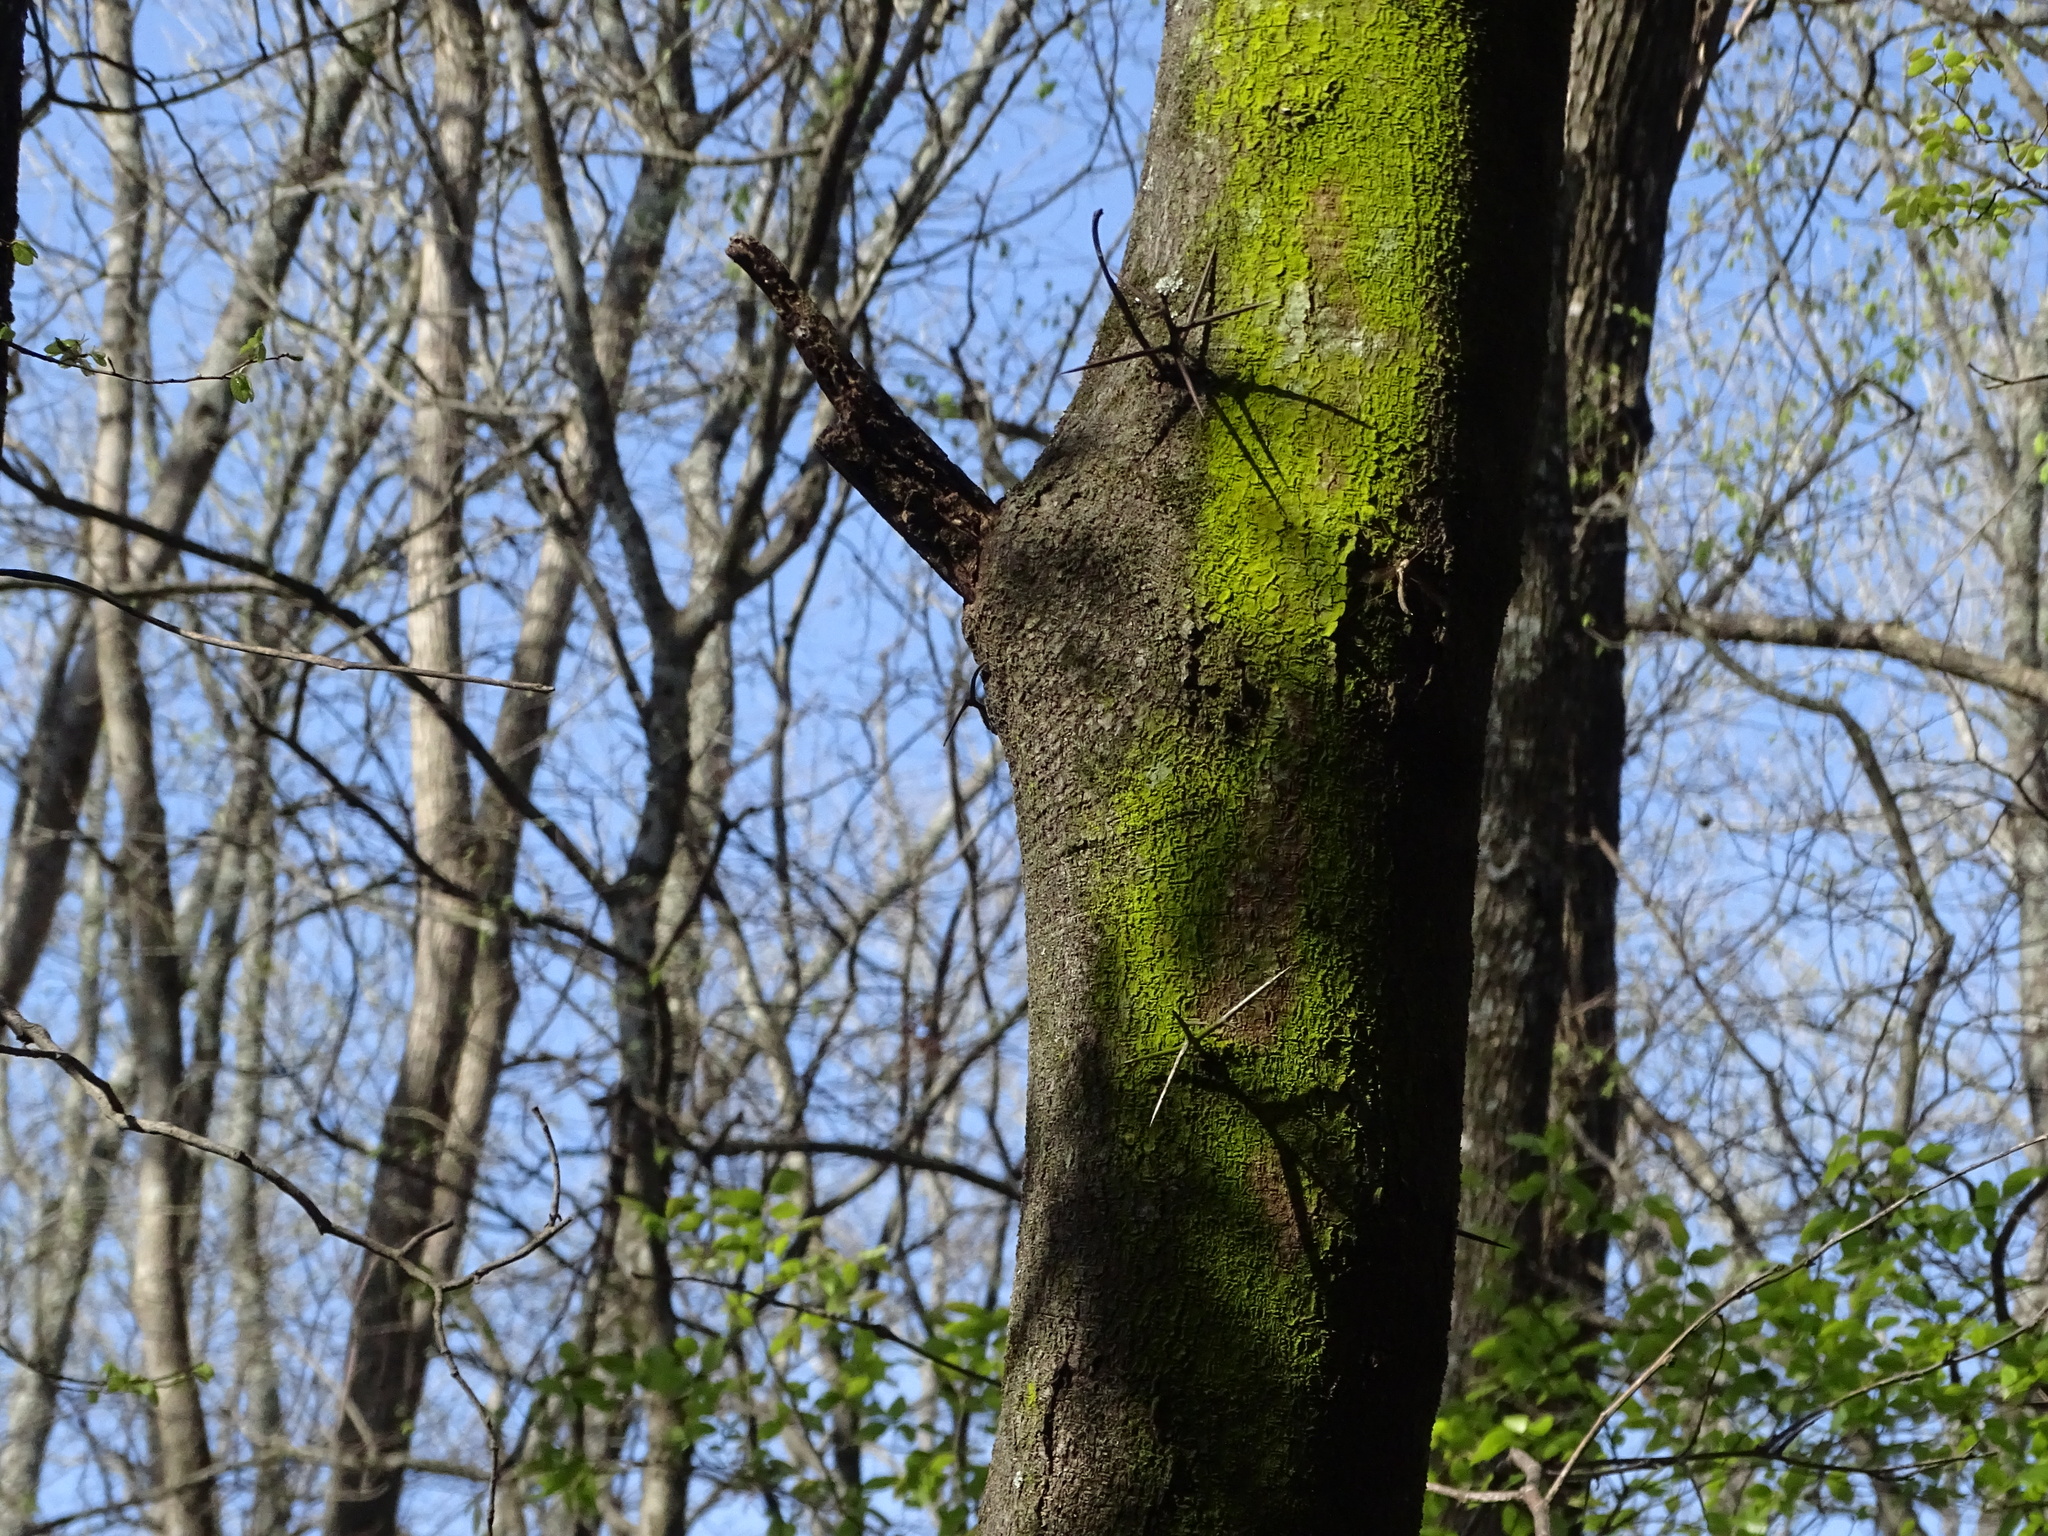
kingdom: Plantae
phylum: Tracheophyta
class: Magnoliopsida
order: Fabales
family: Fabaceae
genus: Gleditsia
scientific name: Gleditsia triacanthos
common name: Common honeylocust
